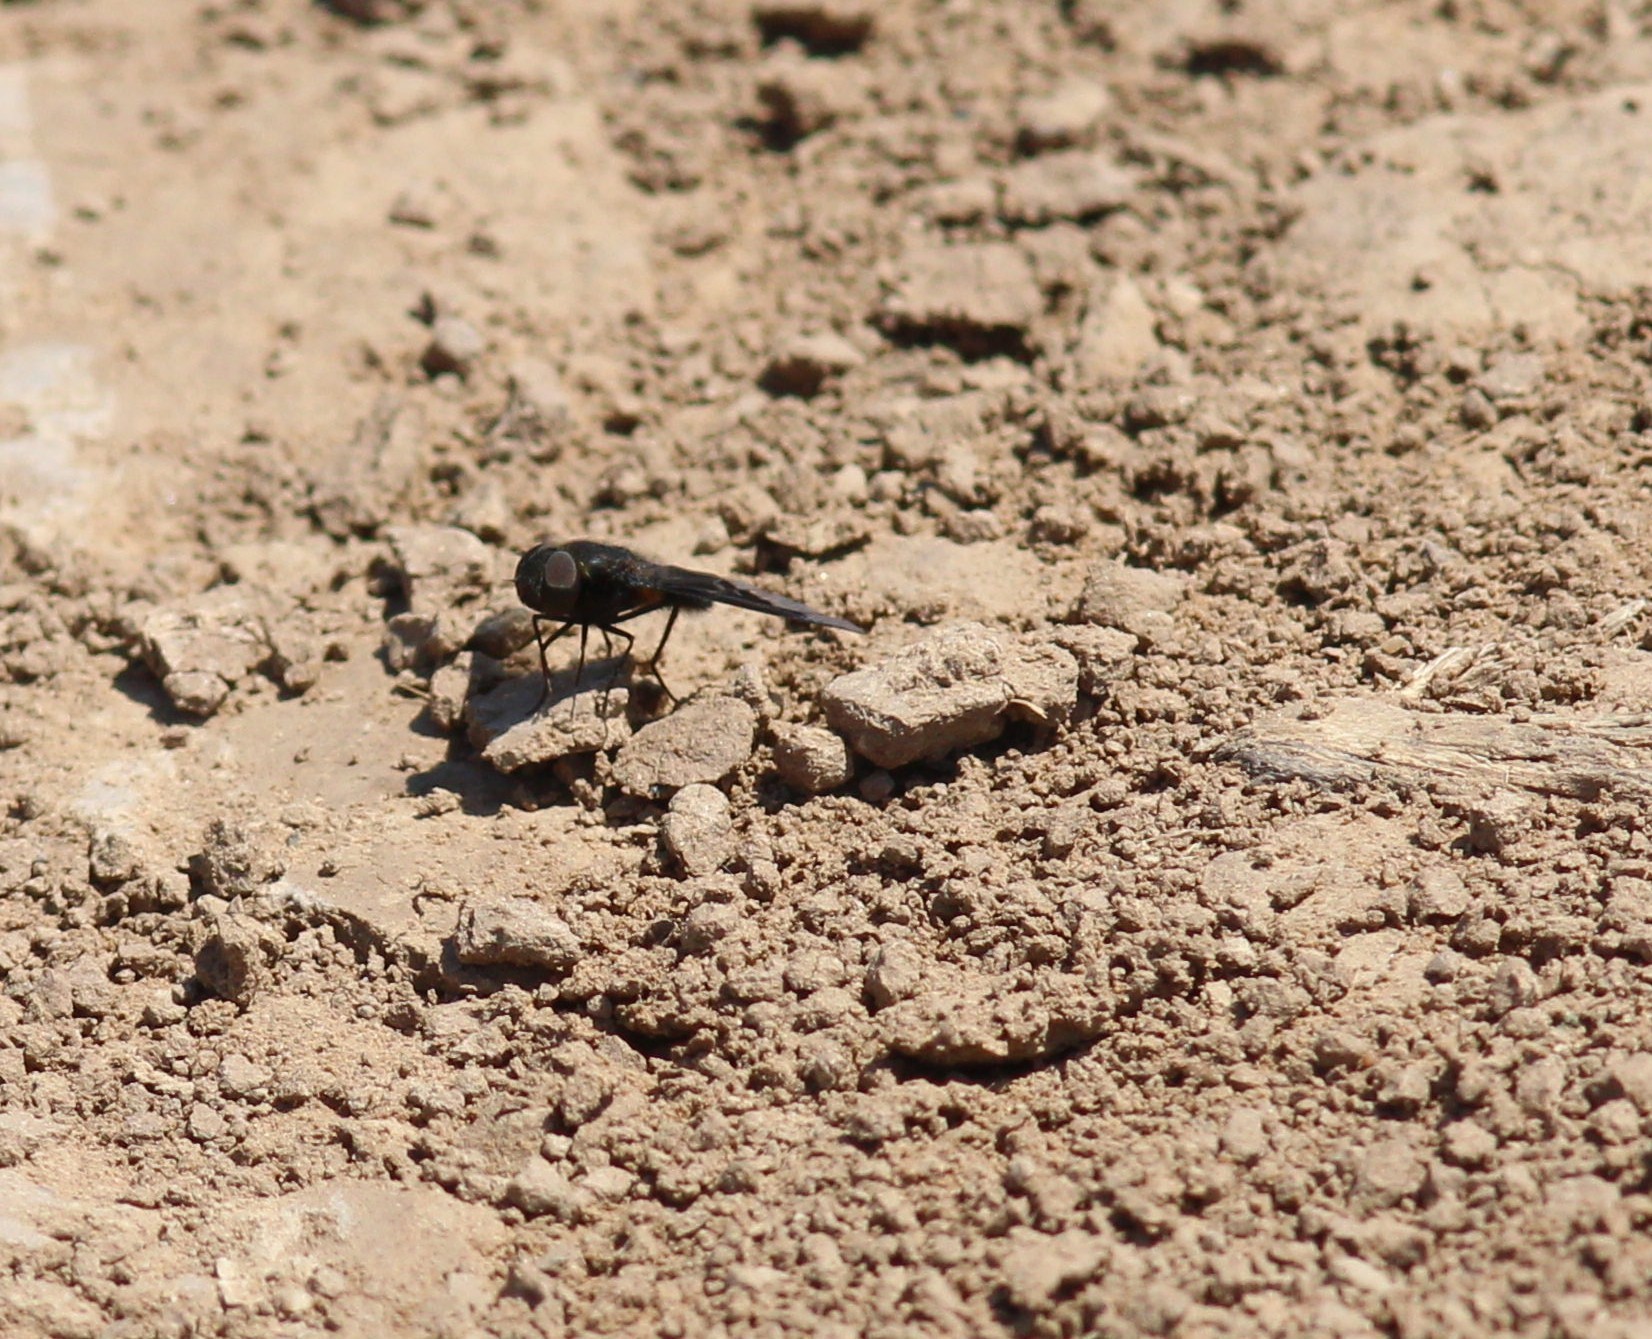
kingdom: Animalia
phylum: Arthropoda
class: Insecta
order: Diptera
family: Bombyliidae
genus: Hemipenthes
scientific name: Hemipenthes velutina
